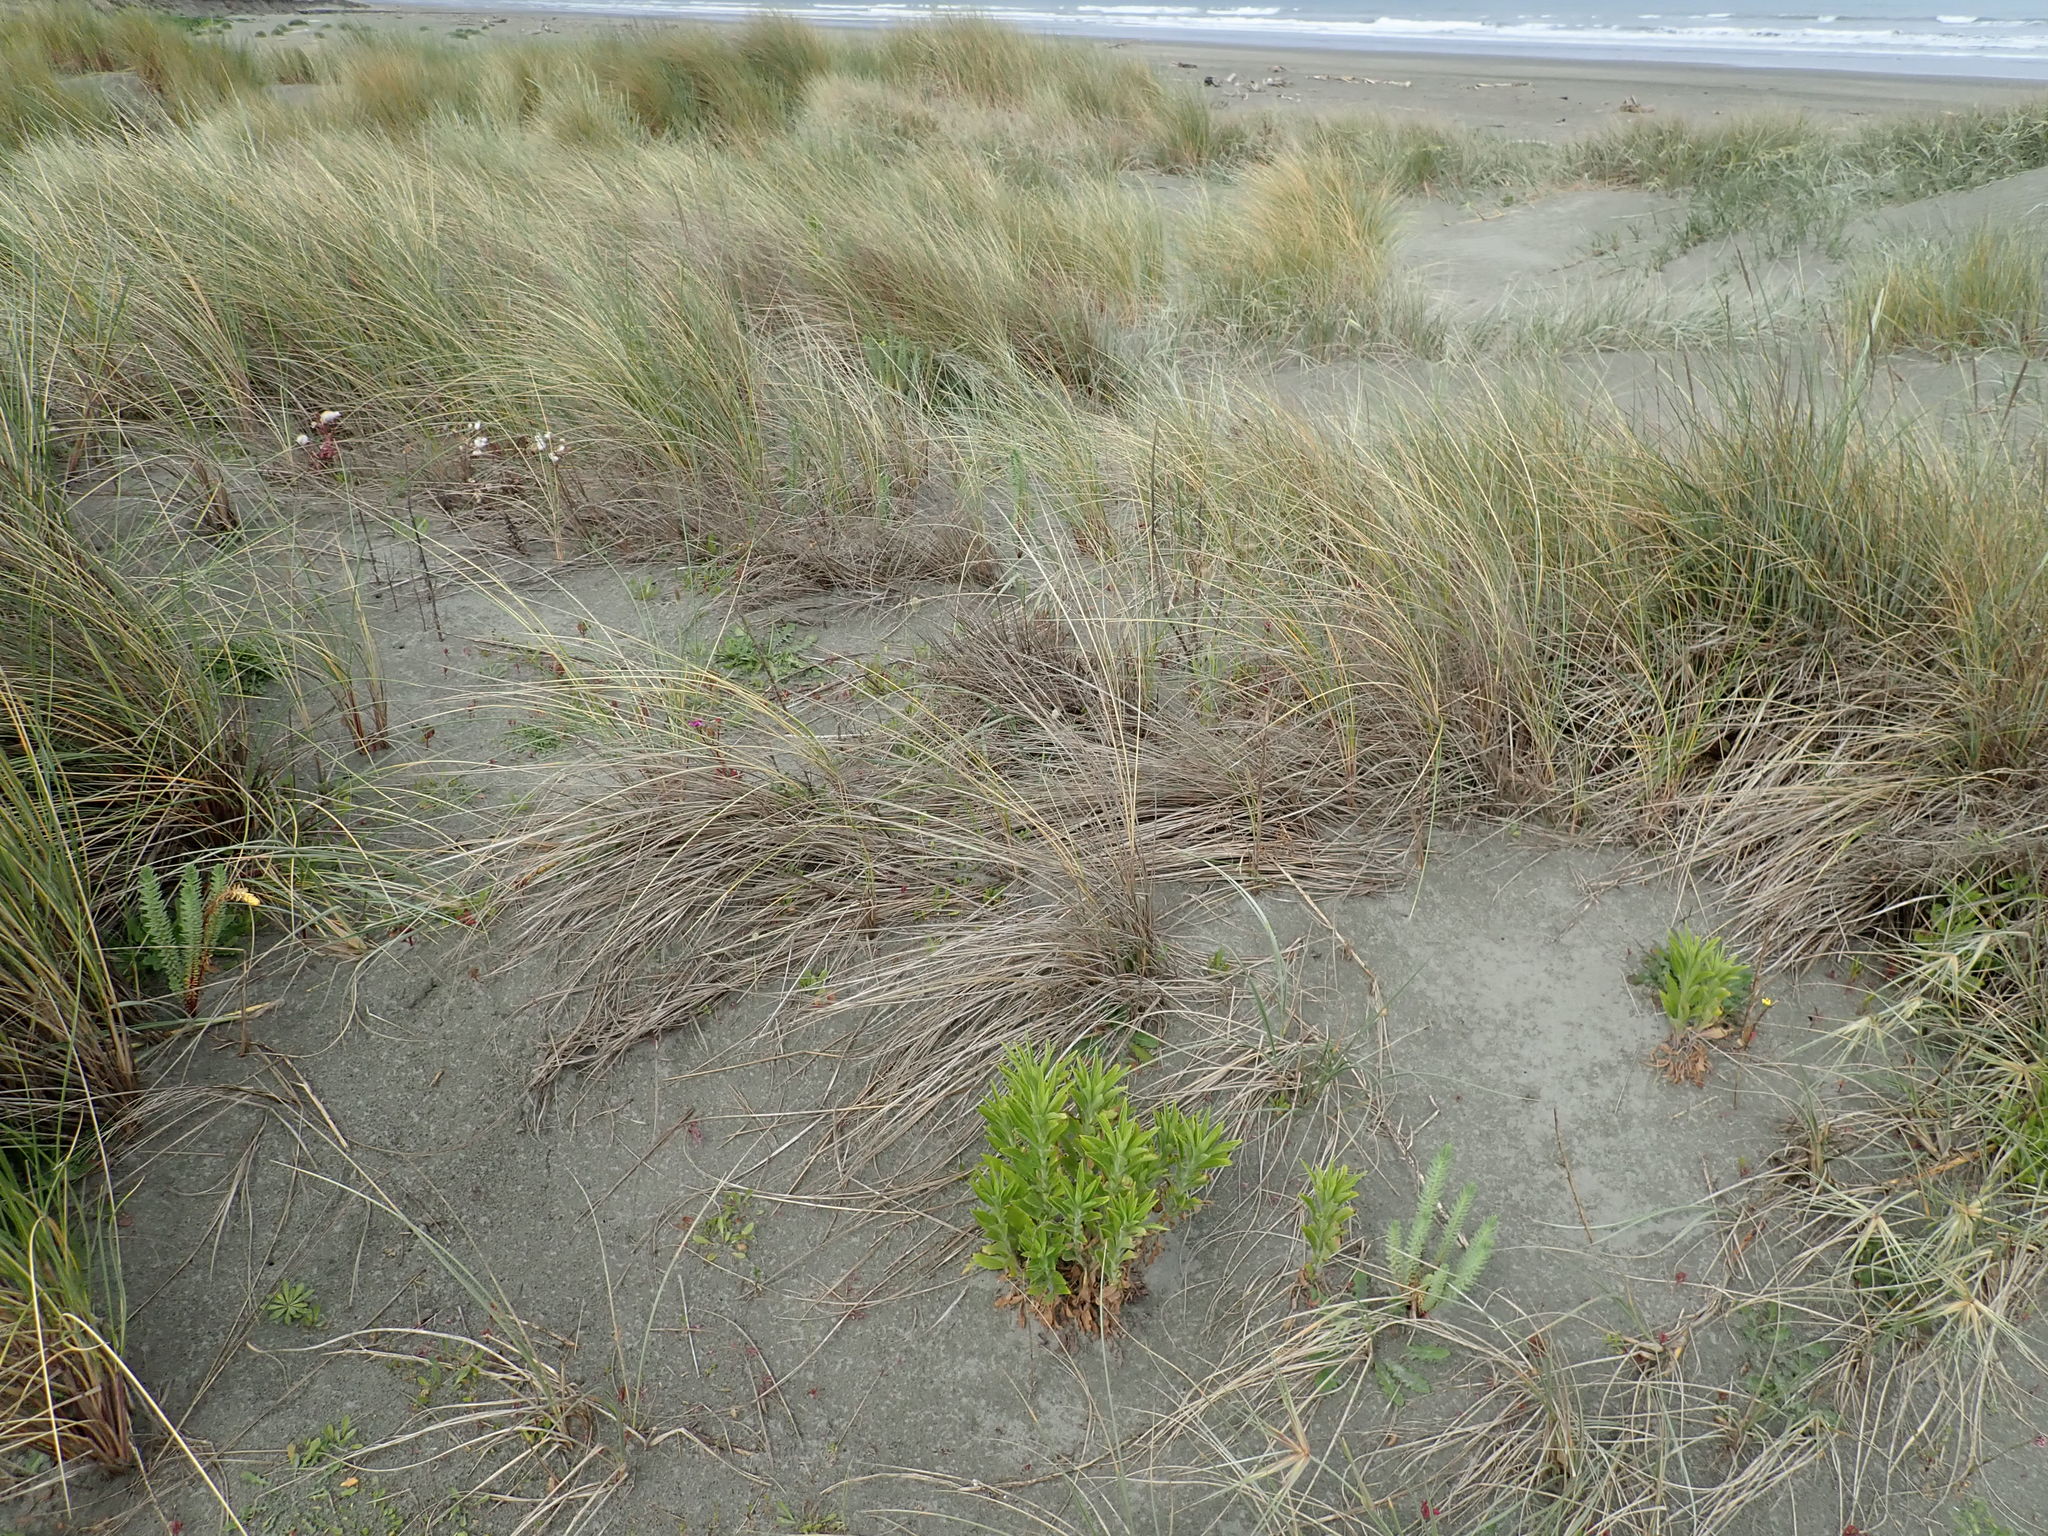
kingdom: Plantae
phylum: Tracheophyta
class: Magnoliopsida
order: Malpighiales
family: Euphorbiaceae
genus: Euphorbia
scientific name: Euphorbia paralias
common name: Sea spurge
